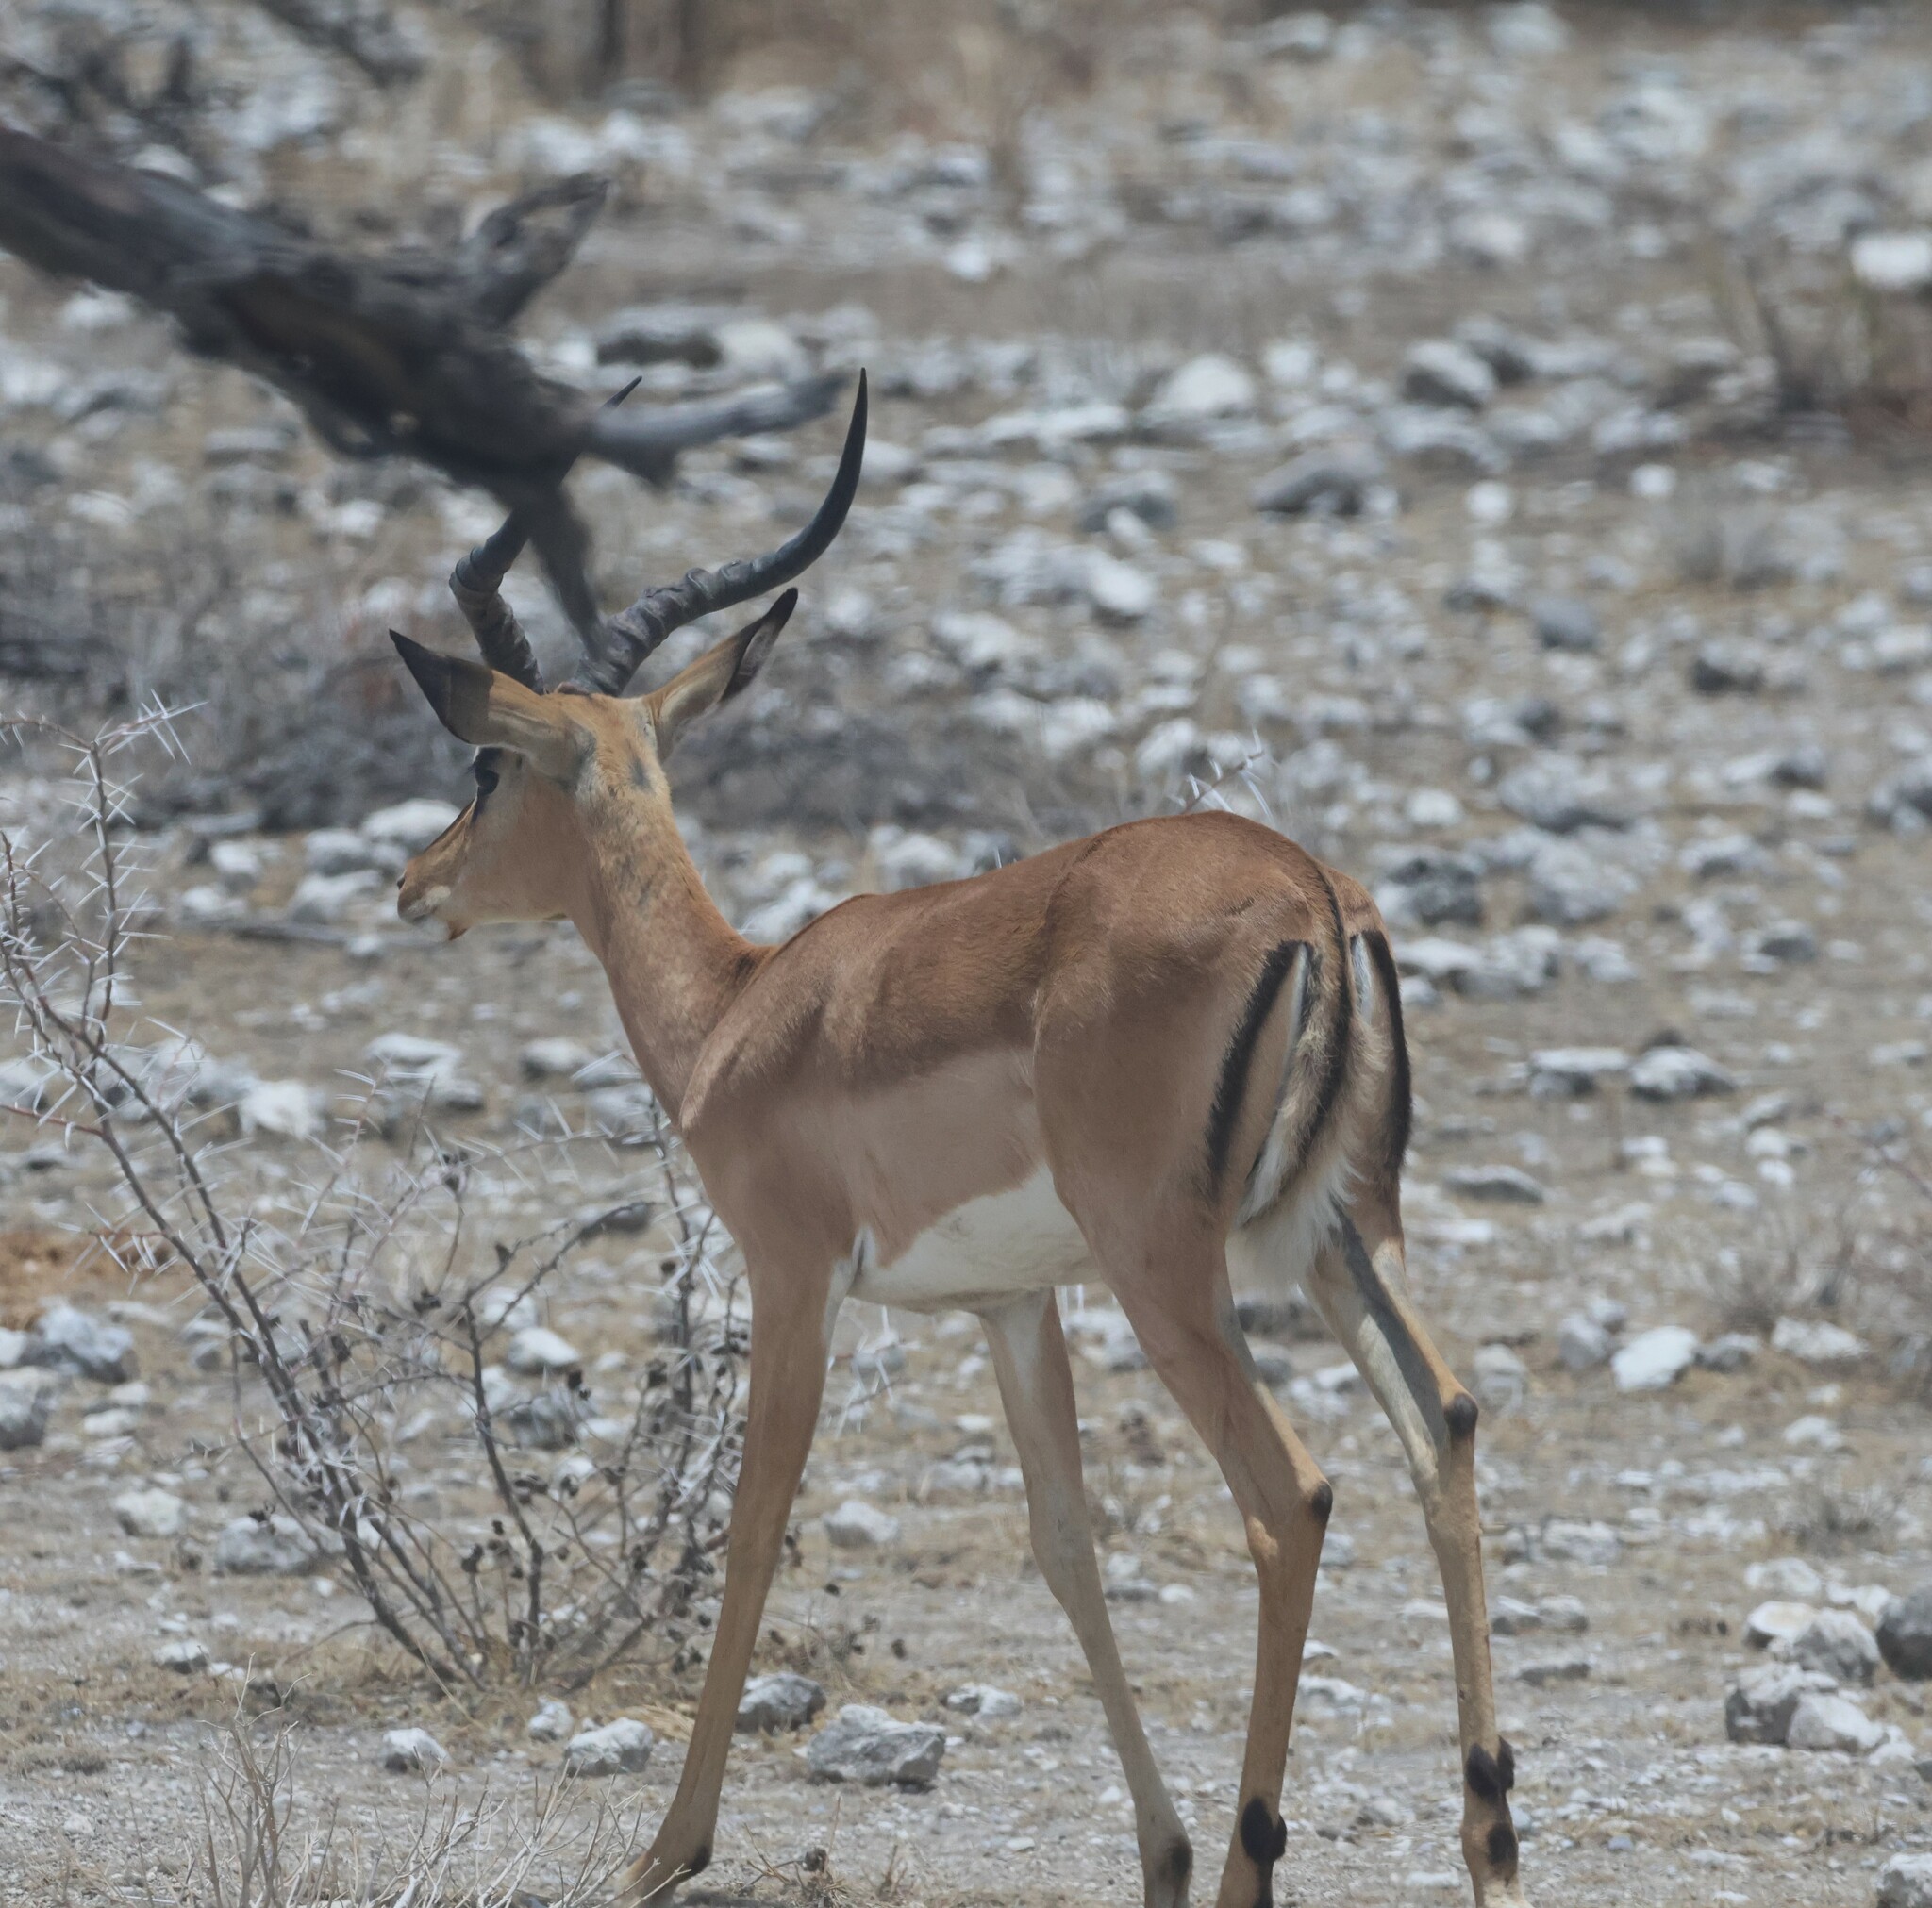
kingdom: Animalia
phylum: Chordata
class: Mammalia
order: Artiodactyla
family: Bovidae
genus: Aepyceros
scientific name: Aepyceros melampus
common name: Impala
